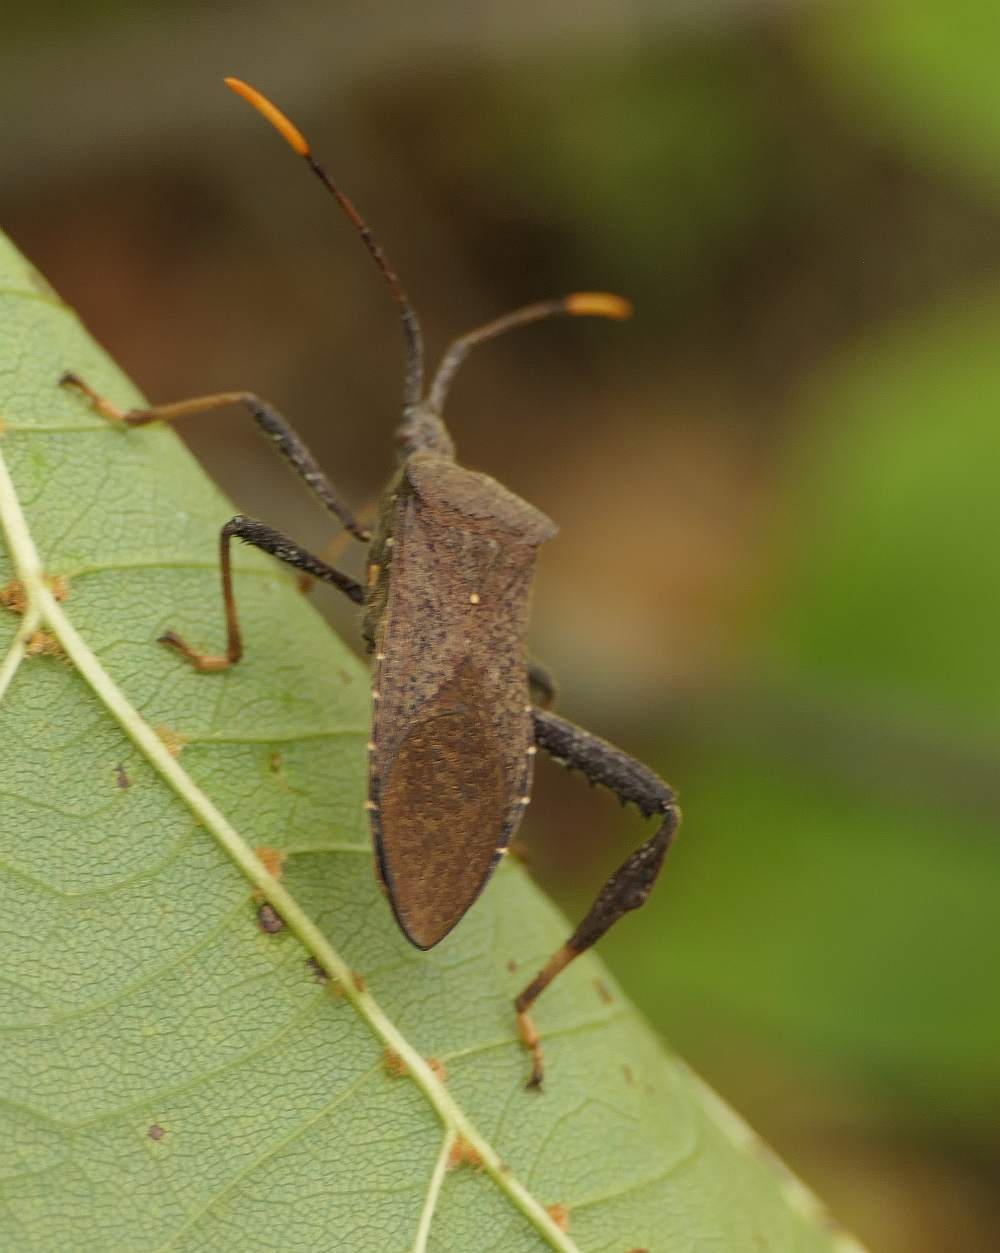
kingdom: Animalia
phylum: Arthropoda
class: Insecta
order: Hemiptera
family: Coreidae
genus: Acanthocephala
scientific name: Acanthocephala terminalis
